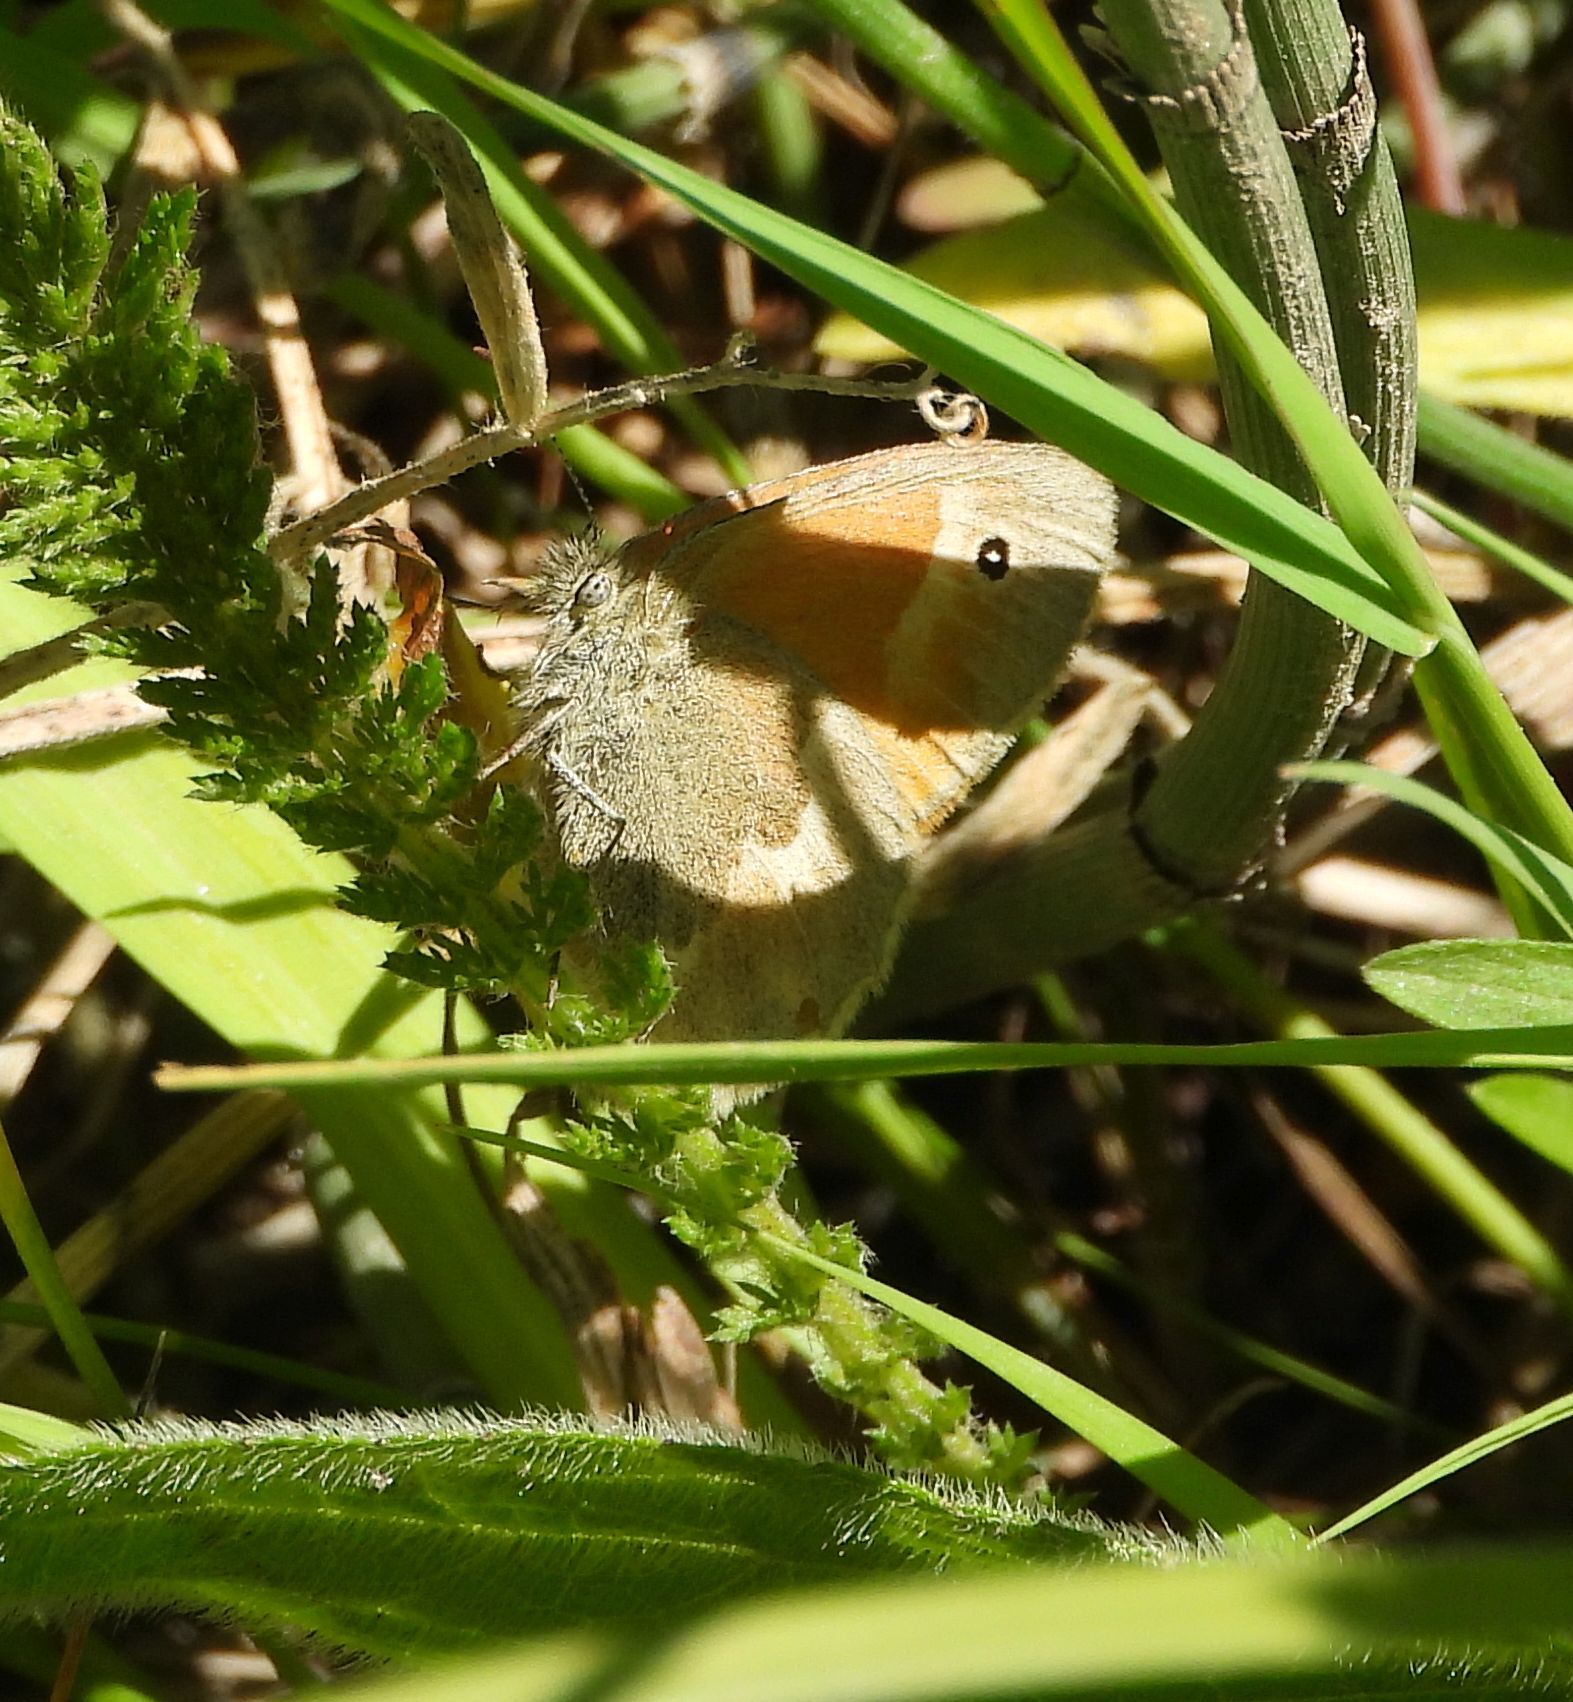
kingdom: Animalia
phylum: Arthropoda
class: Insecta
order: Lepidoptera
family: Nymphalidae
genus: Coenonympha
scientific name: Coenonympha california
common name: Common ringlet
